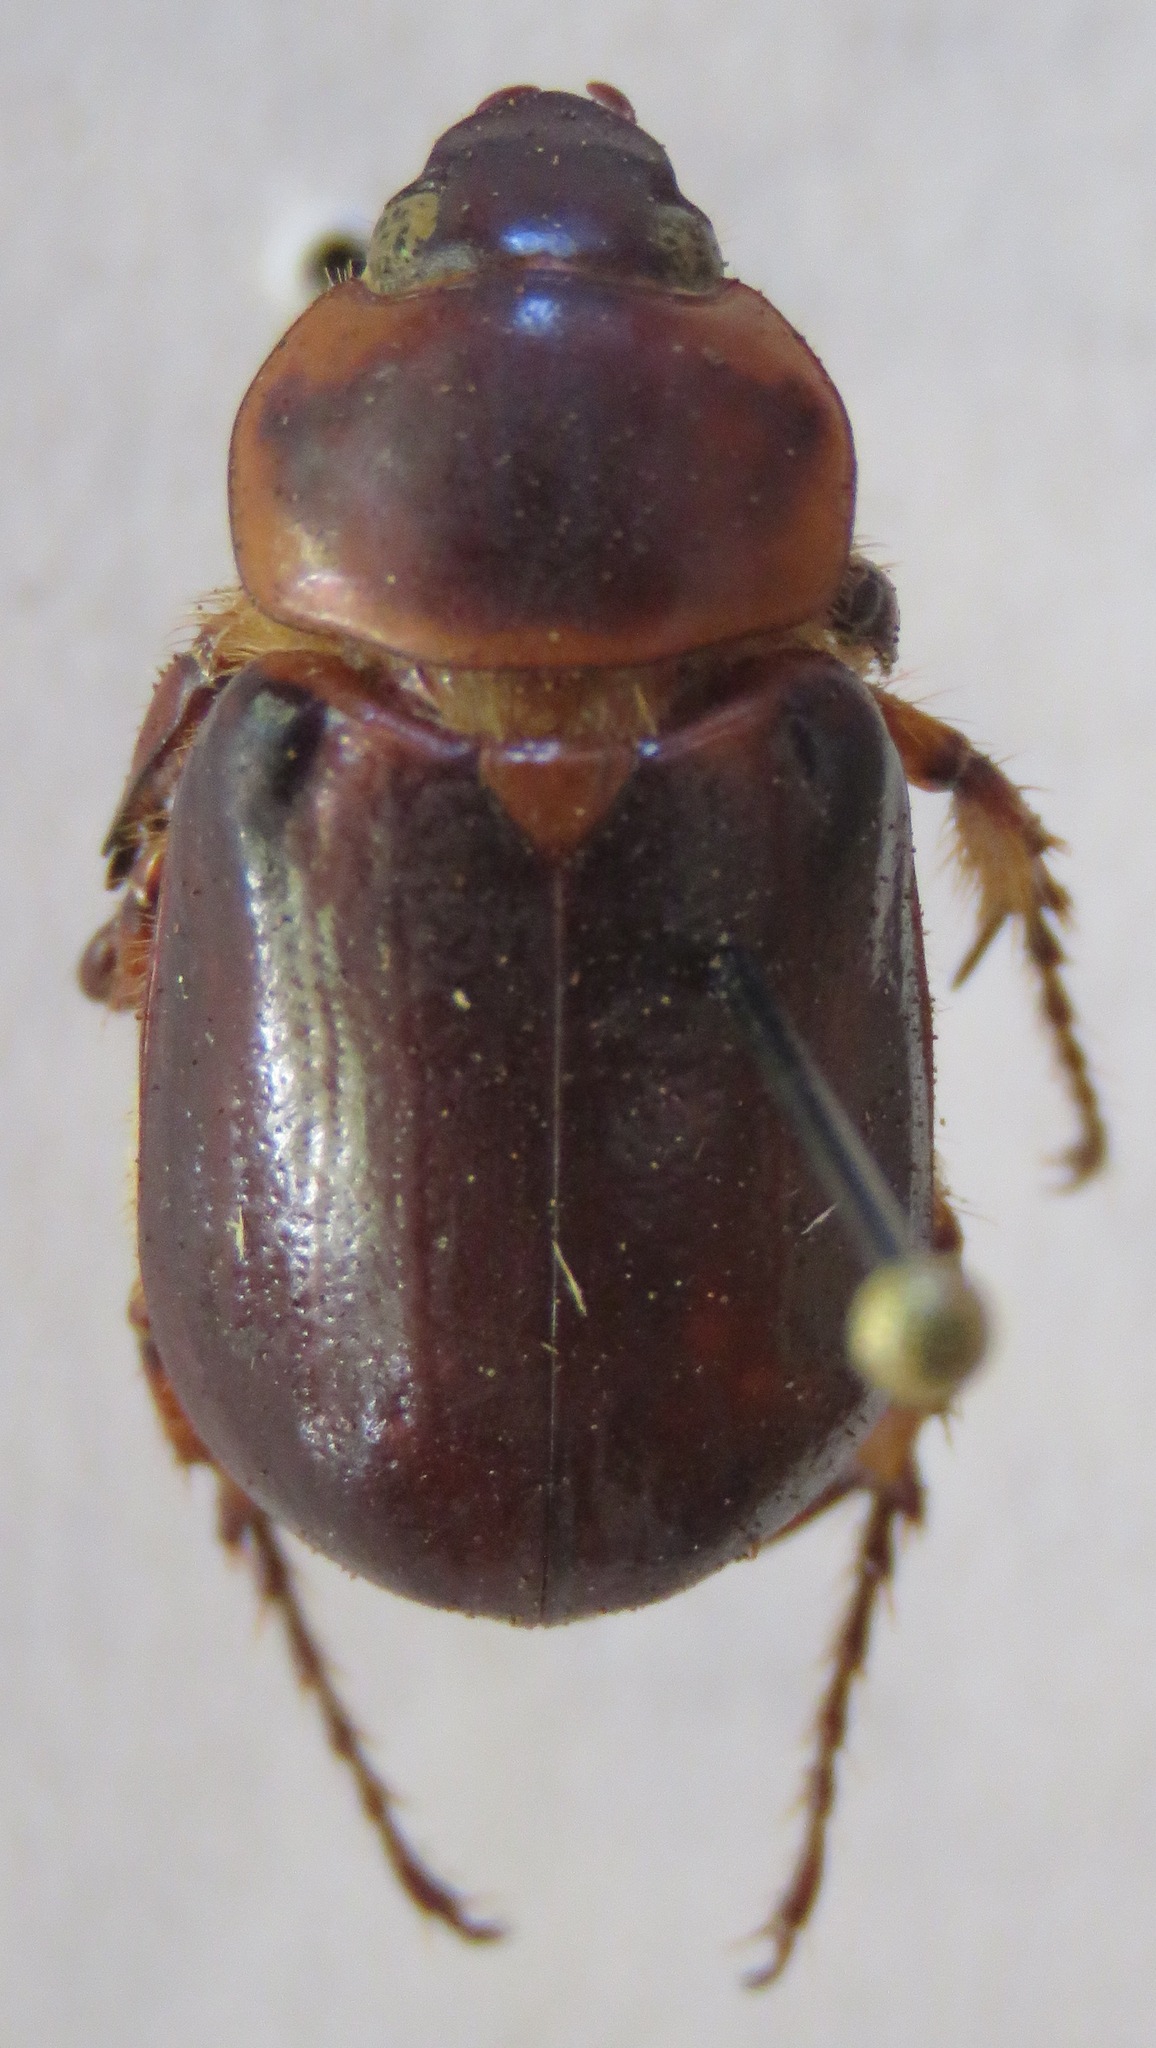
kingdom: Animalia
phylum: Arthropoda
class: Insecta
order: Coleoptera
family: Scarabaeidae
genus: Ancognatha
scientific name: Ancognatha manca
